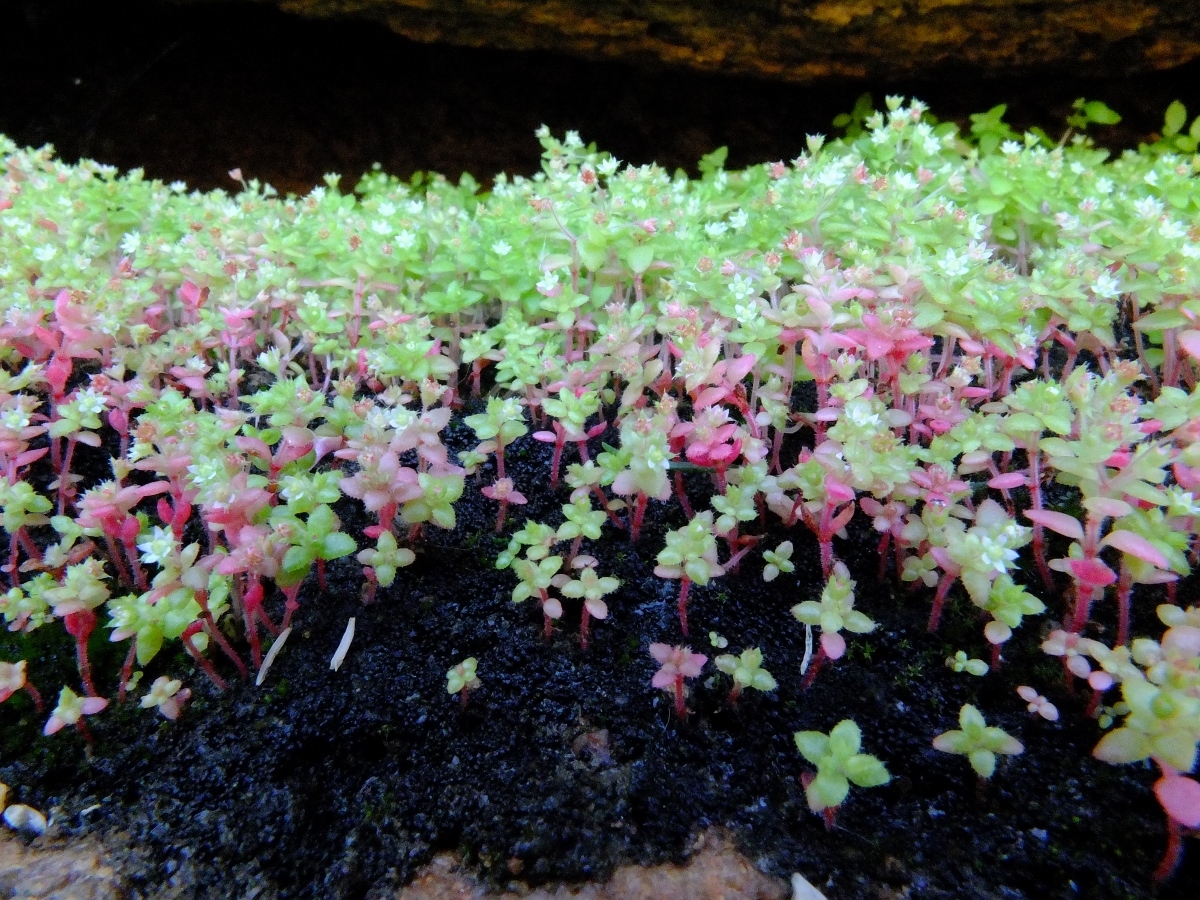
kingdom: Plantae
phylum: Tracheophyta
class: Magnoliopsida
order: Saxifragales
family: Crassulaceae
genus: Crassula
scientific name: Crassula strigosa
